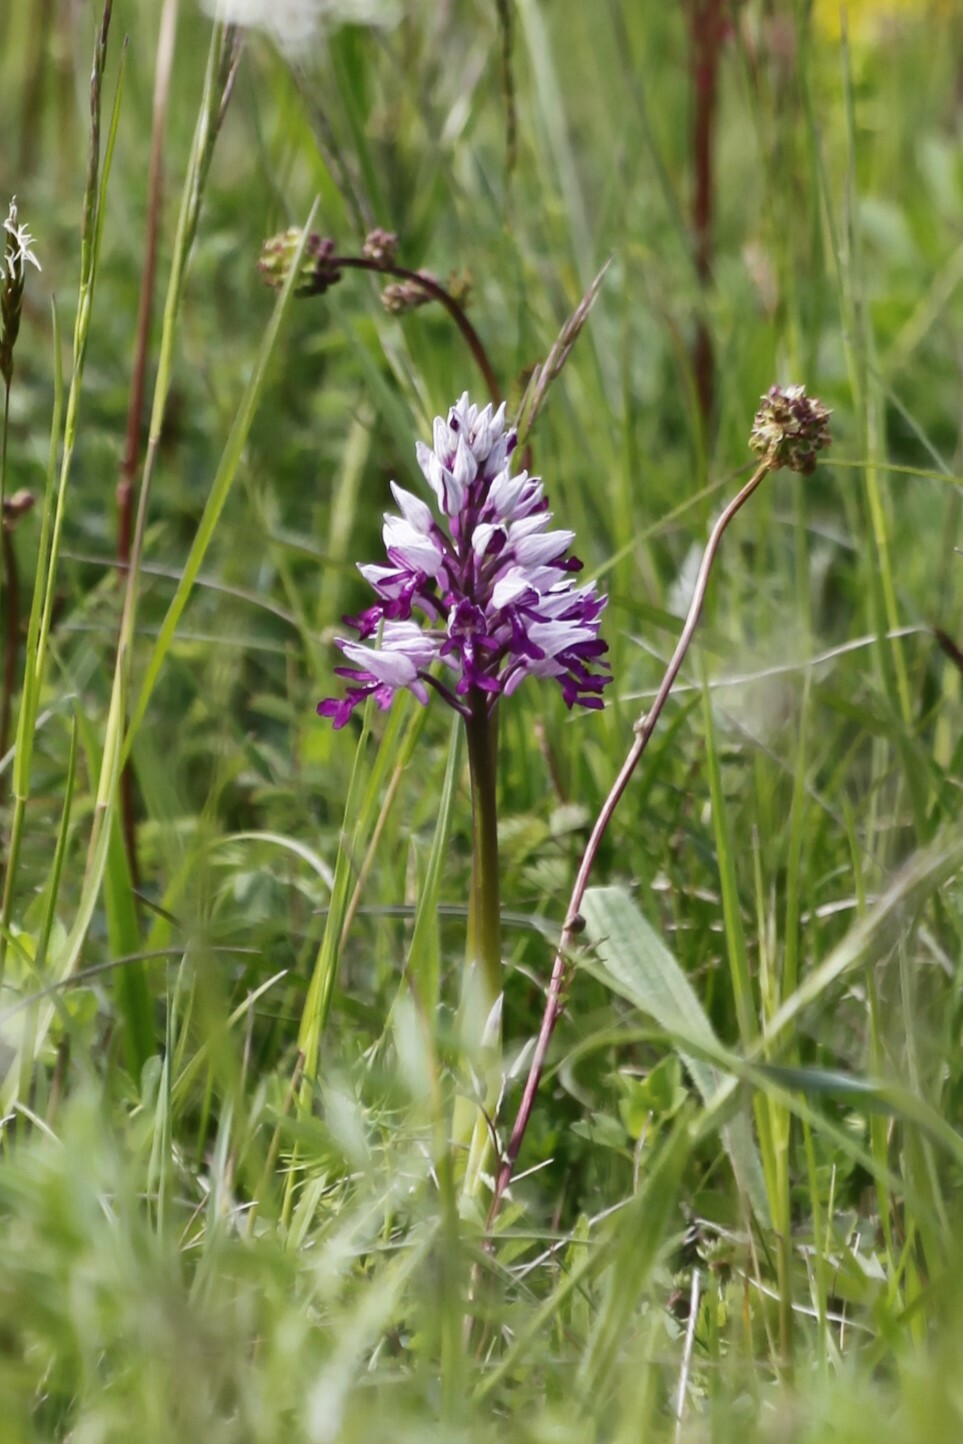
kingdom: Plantae
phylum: Tracheophyta
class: Liliopsida
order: Asparagales
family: Orchidaceae
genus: Orchis
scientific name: Orchis militaris
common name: Military orchid
